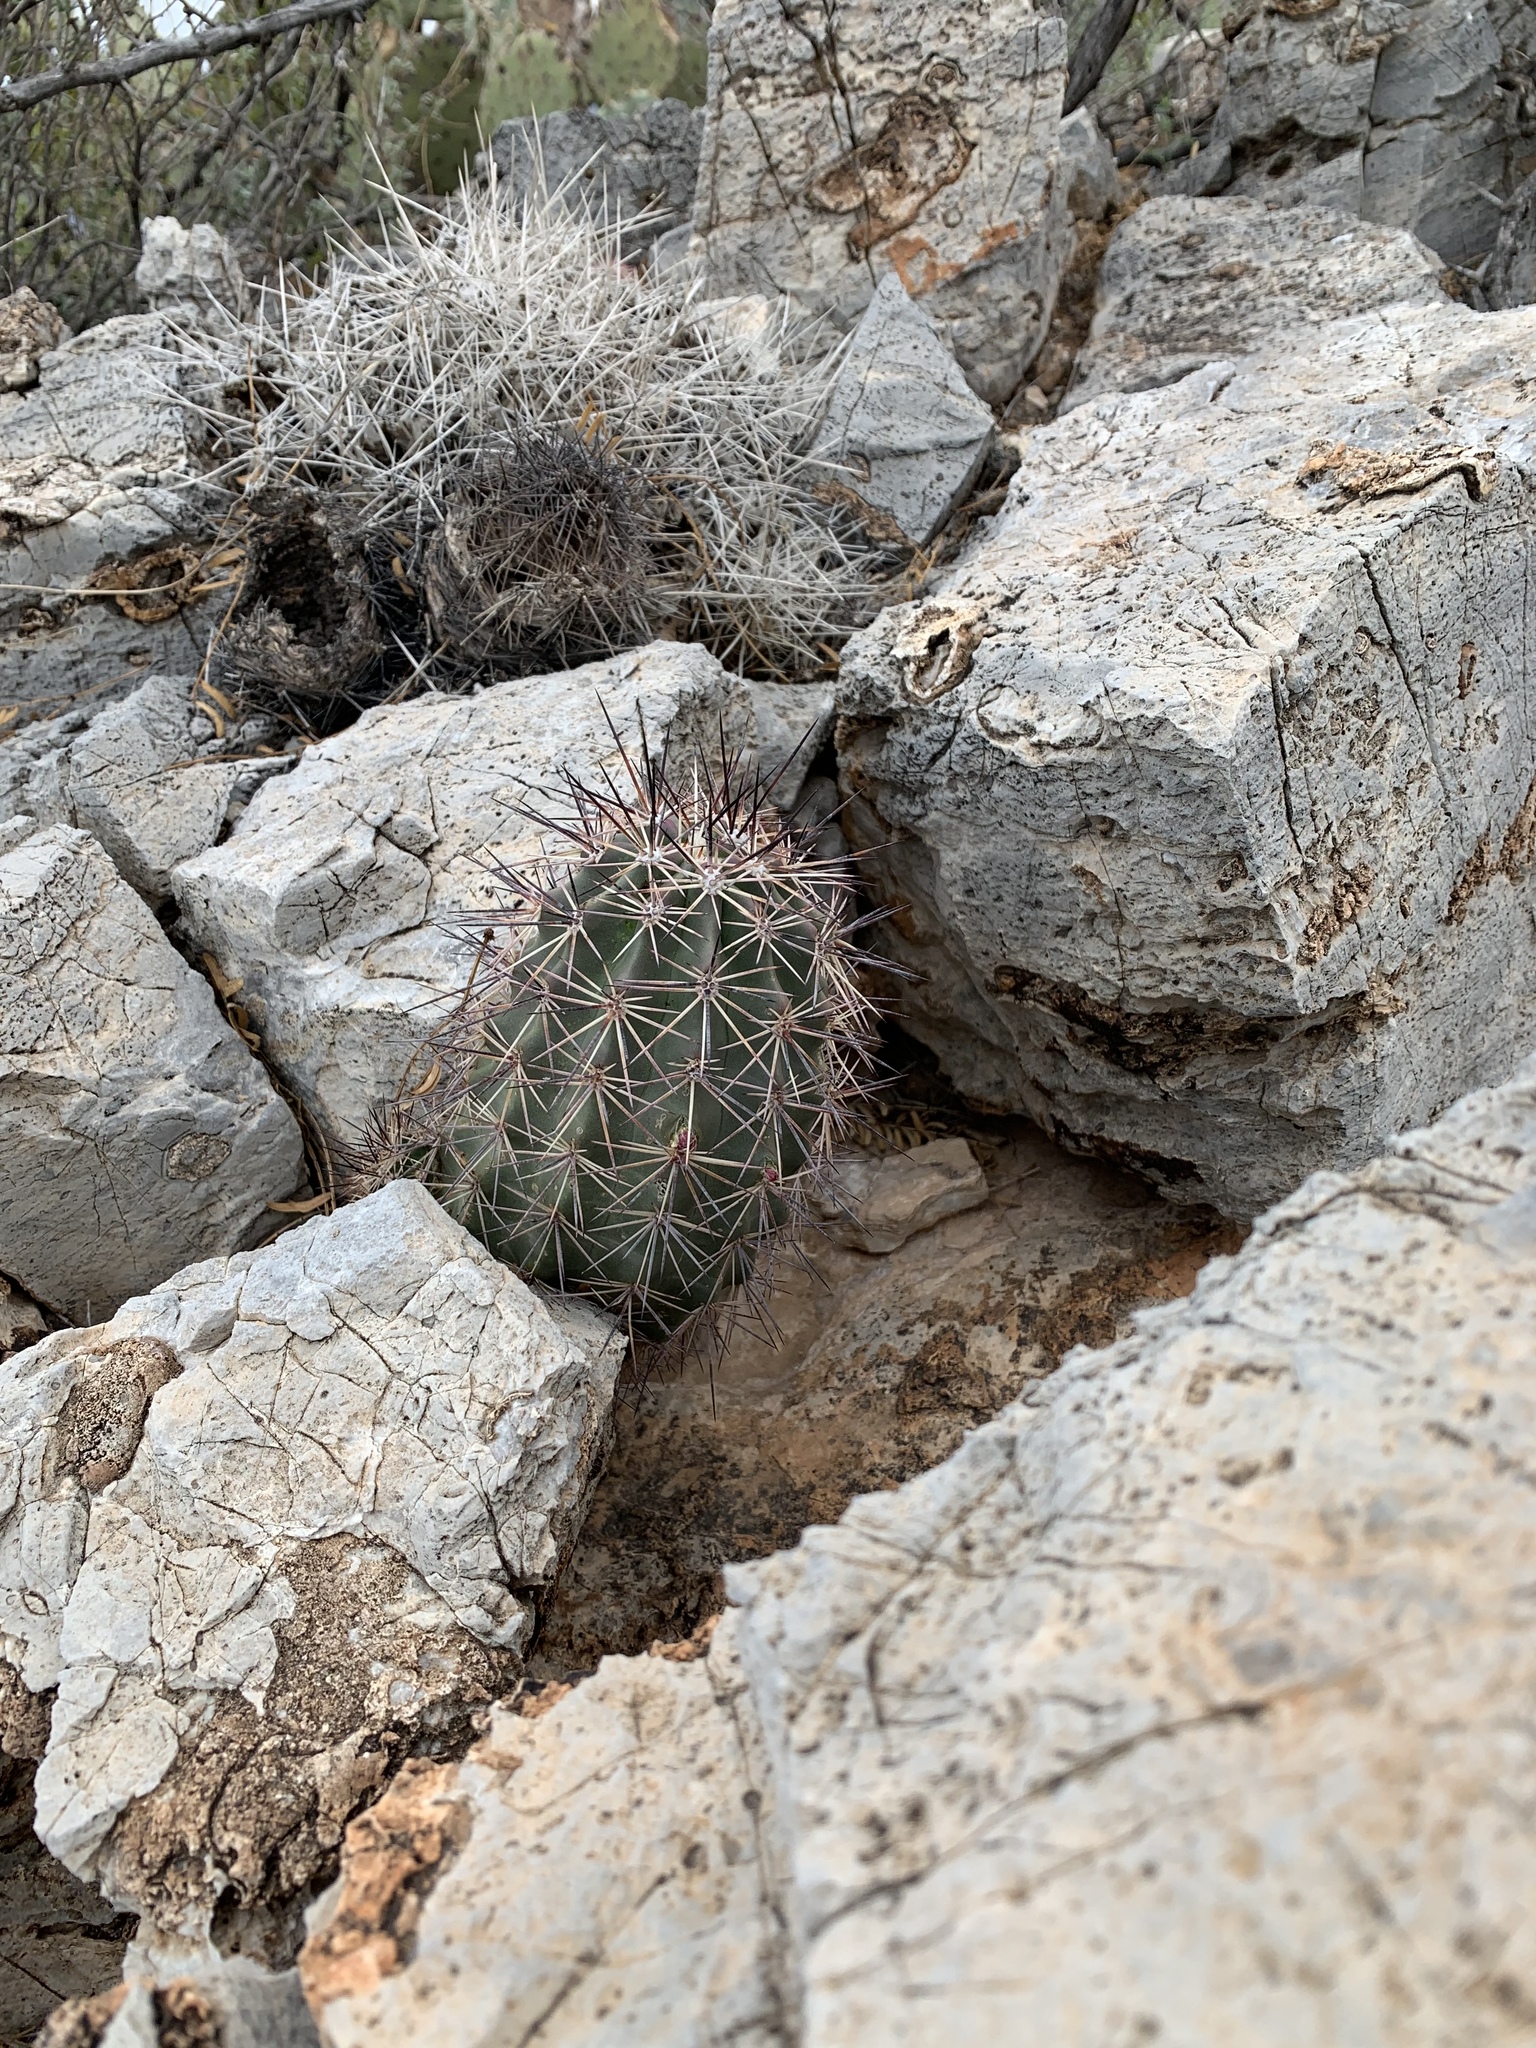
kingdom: Plantae
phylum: Tracheophyta
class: Magnoliopsida
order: Caryophyllales
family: Cactaceae
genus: Echinocereus
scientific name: Echinocereus coccineus
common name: Scarlet hedgehog cactus
